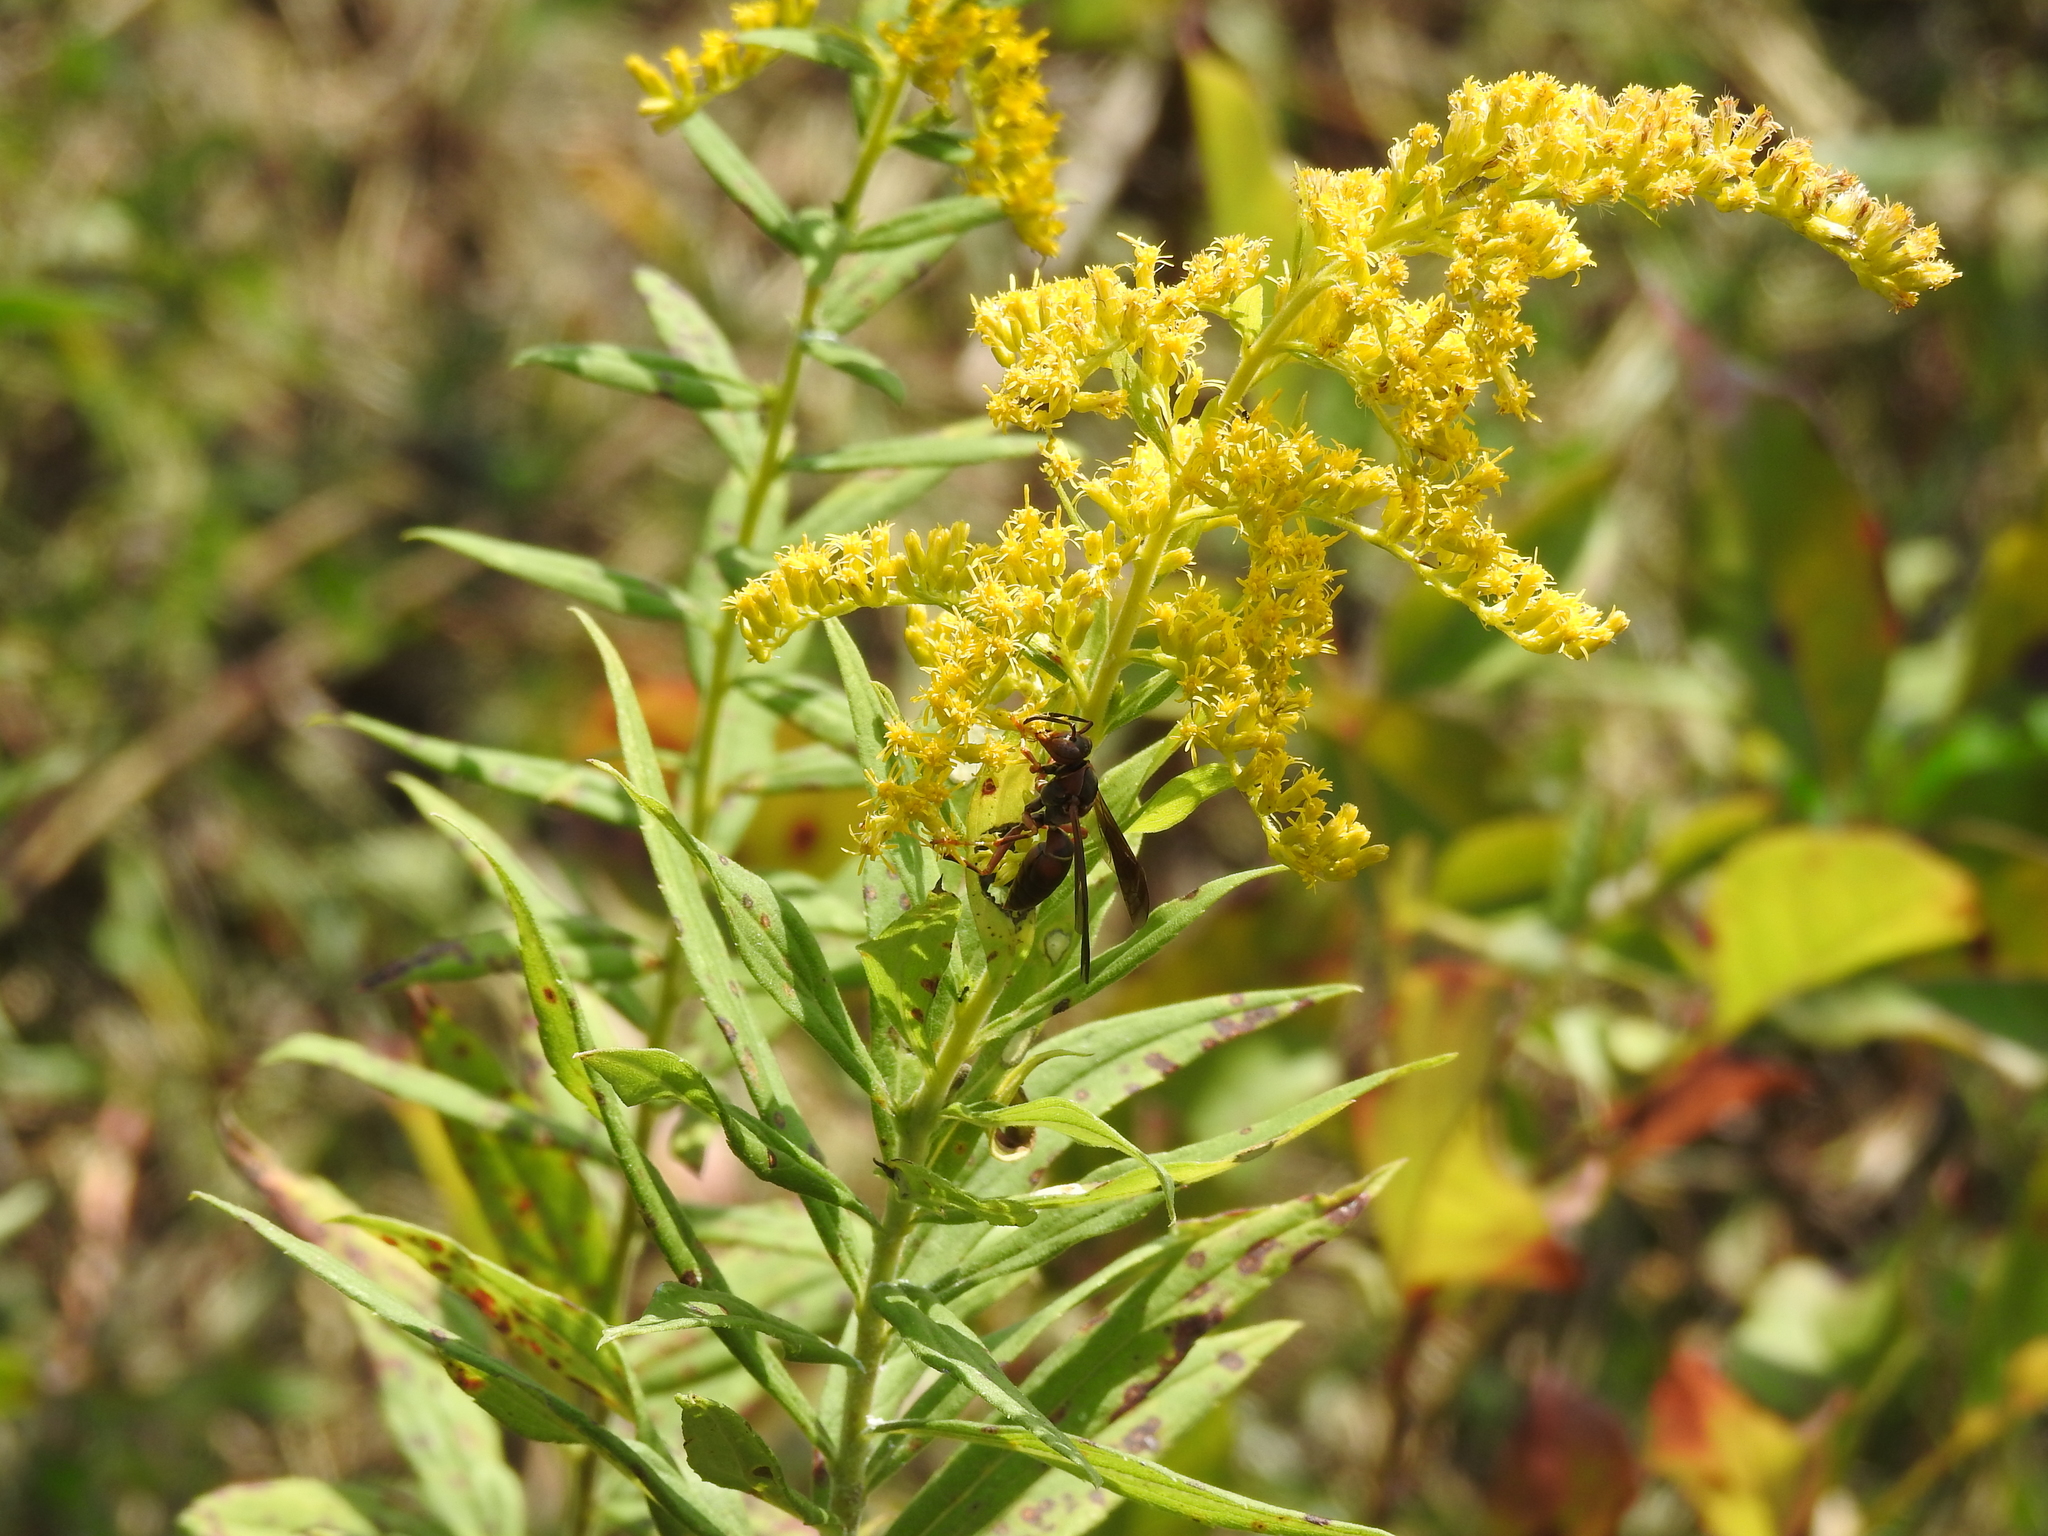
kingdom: Animalia
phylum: Arthropoda
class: Insecta
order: Hymenoptera
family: Eumenidae
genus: Polistes
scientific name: Polistes fuscatus
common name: Dark paper wasp
